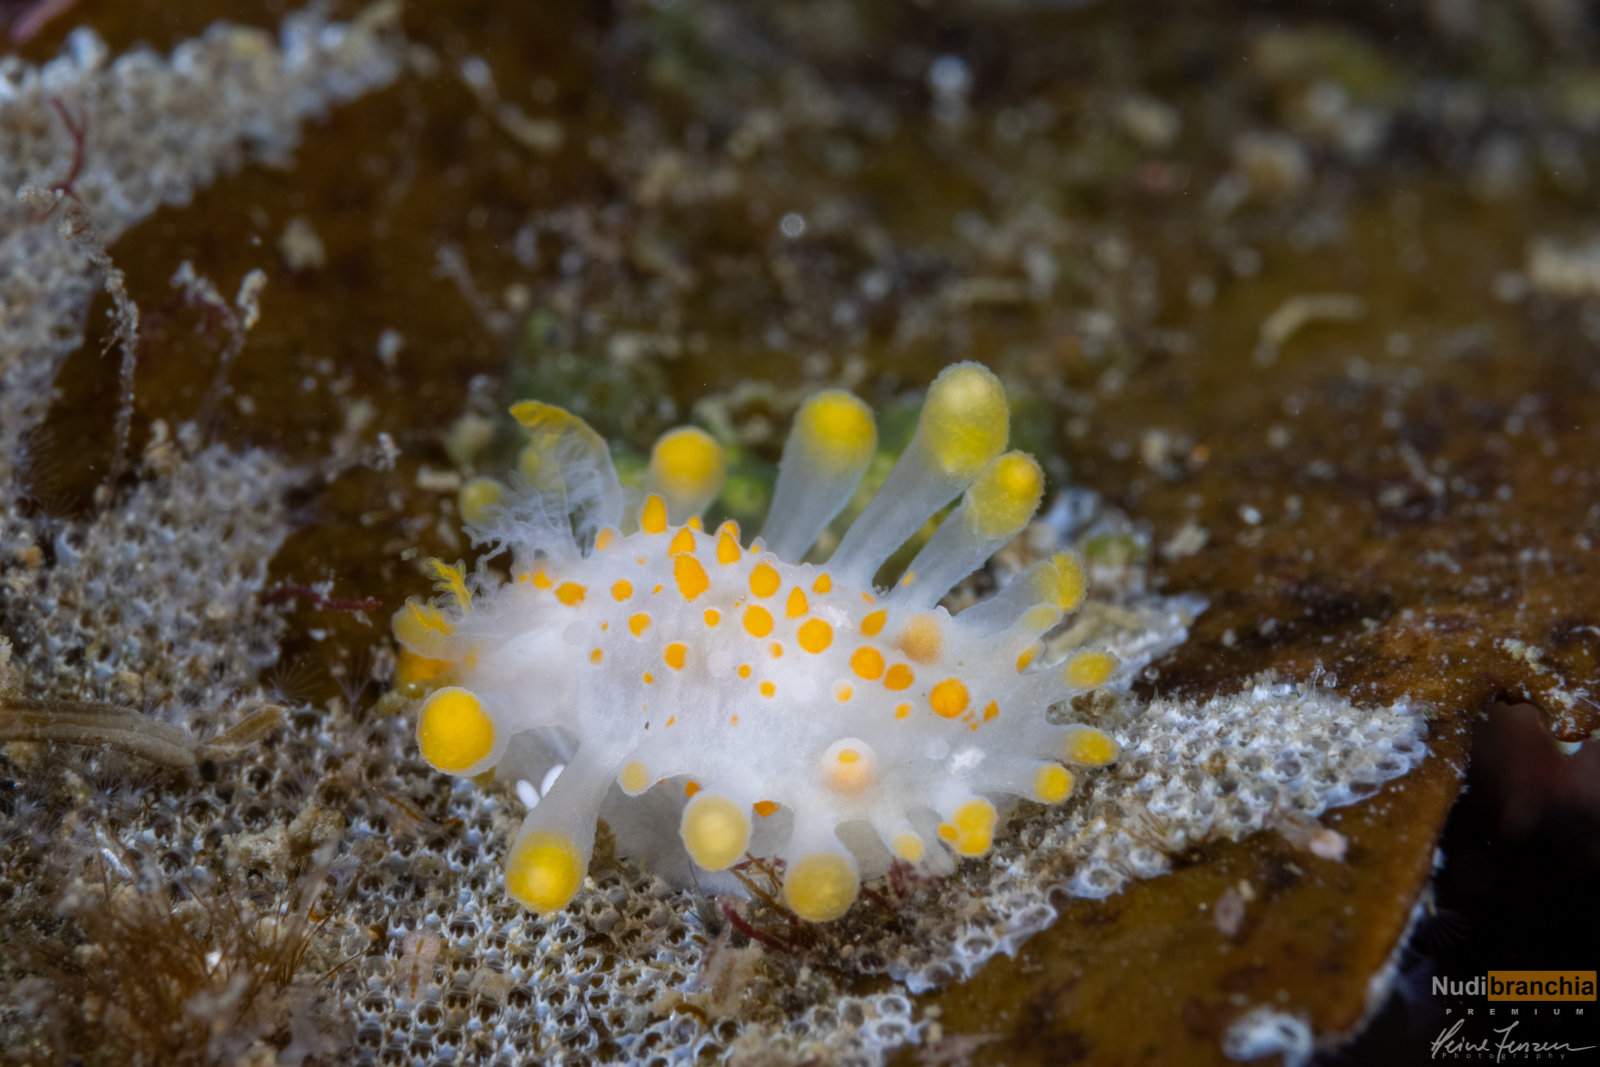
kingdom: Animalia
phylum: Mollusca
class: Gastropoda
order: Nudibranchia
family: Polyceridae
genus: Limacia
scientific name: Limacia clavigera
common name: Orange-clubbed sea slug
